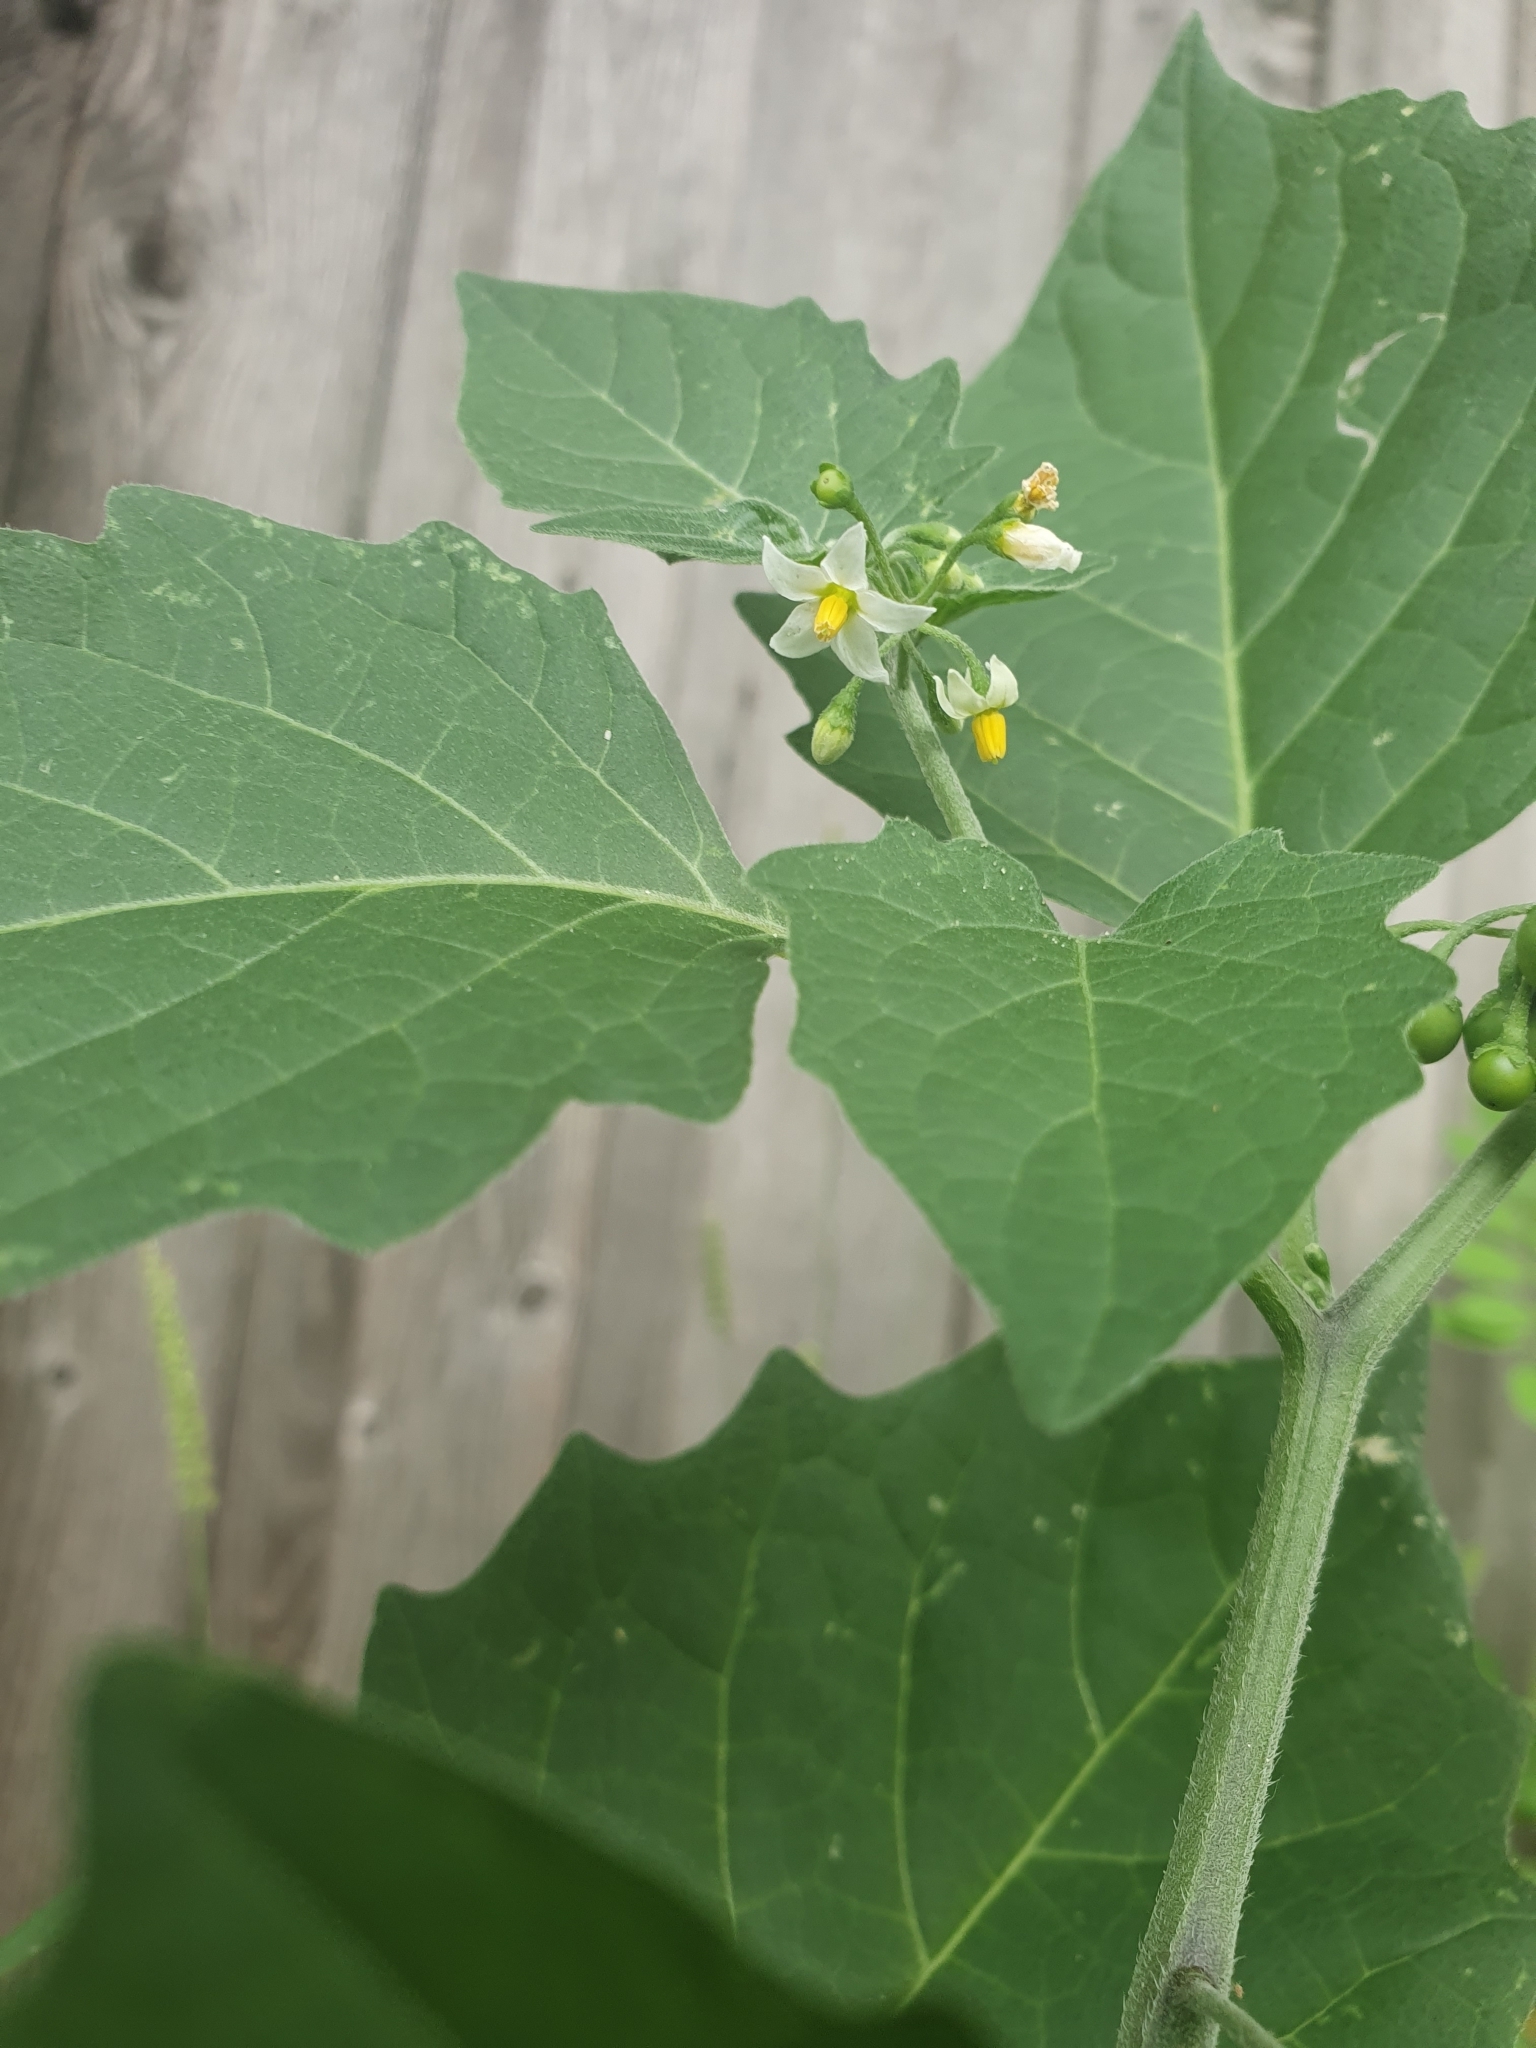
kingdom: Plantae
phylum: Tracheophyta
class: Magnoliopsida
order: Solanales
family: Solanaceae
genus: Solanum
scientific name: Solanum nigrum
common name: Black nightshade
